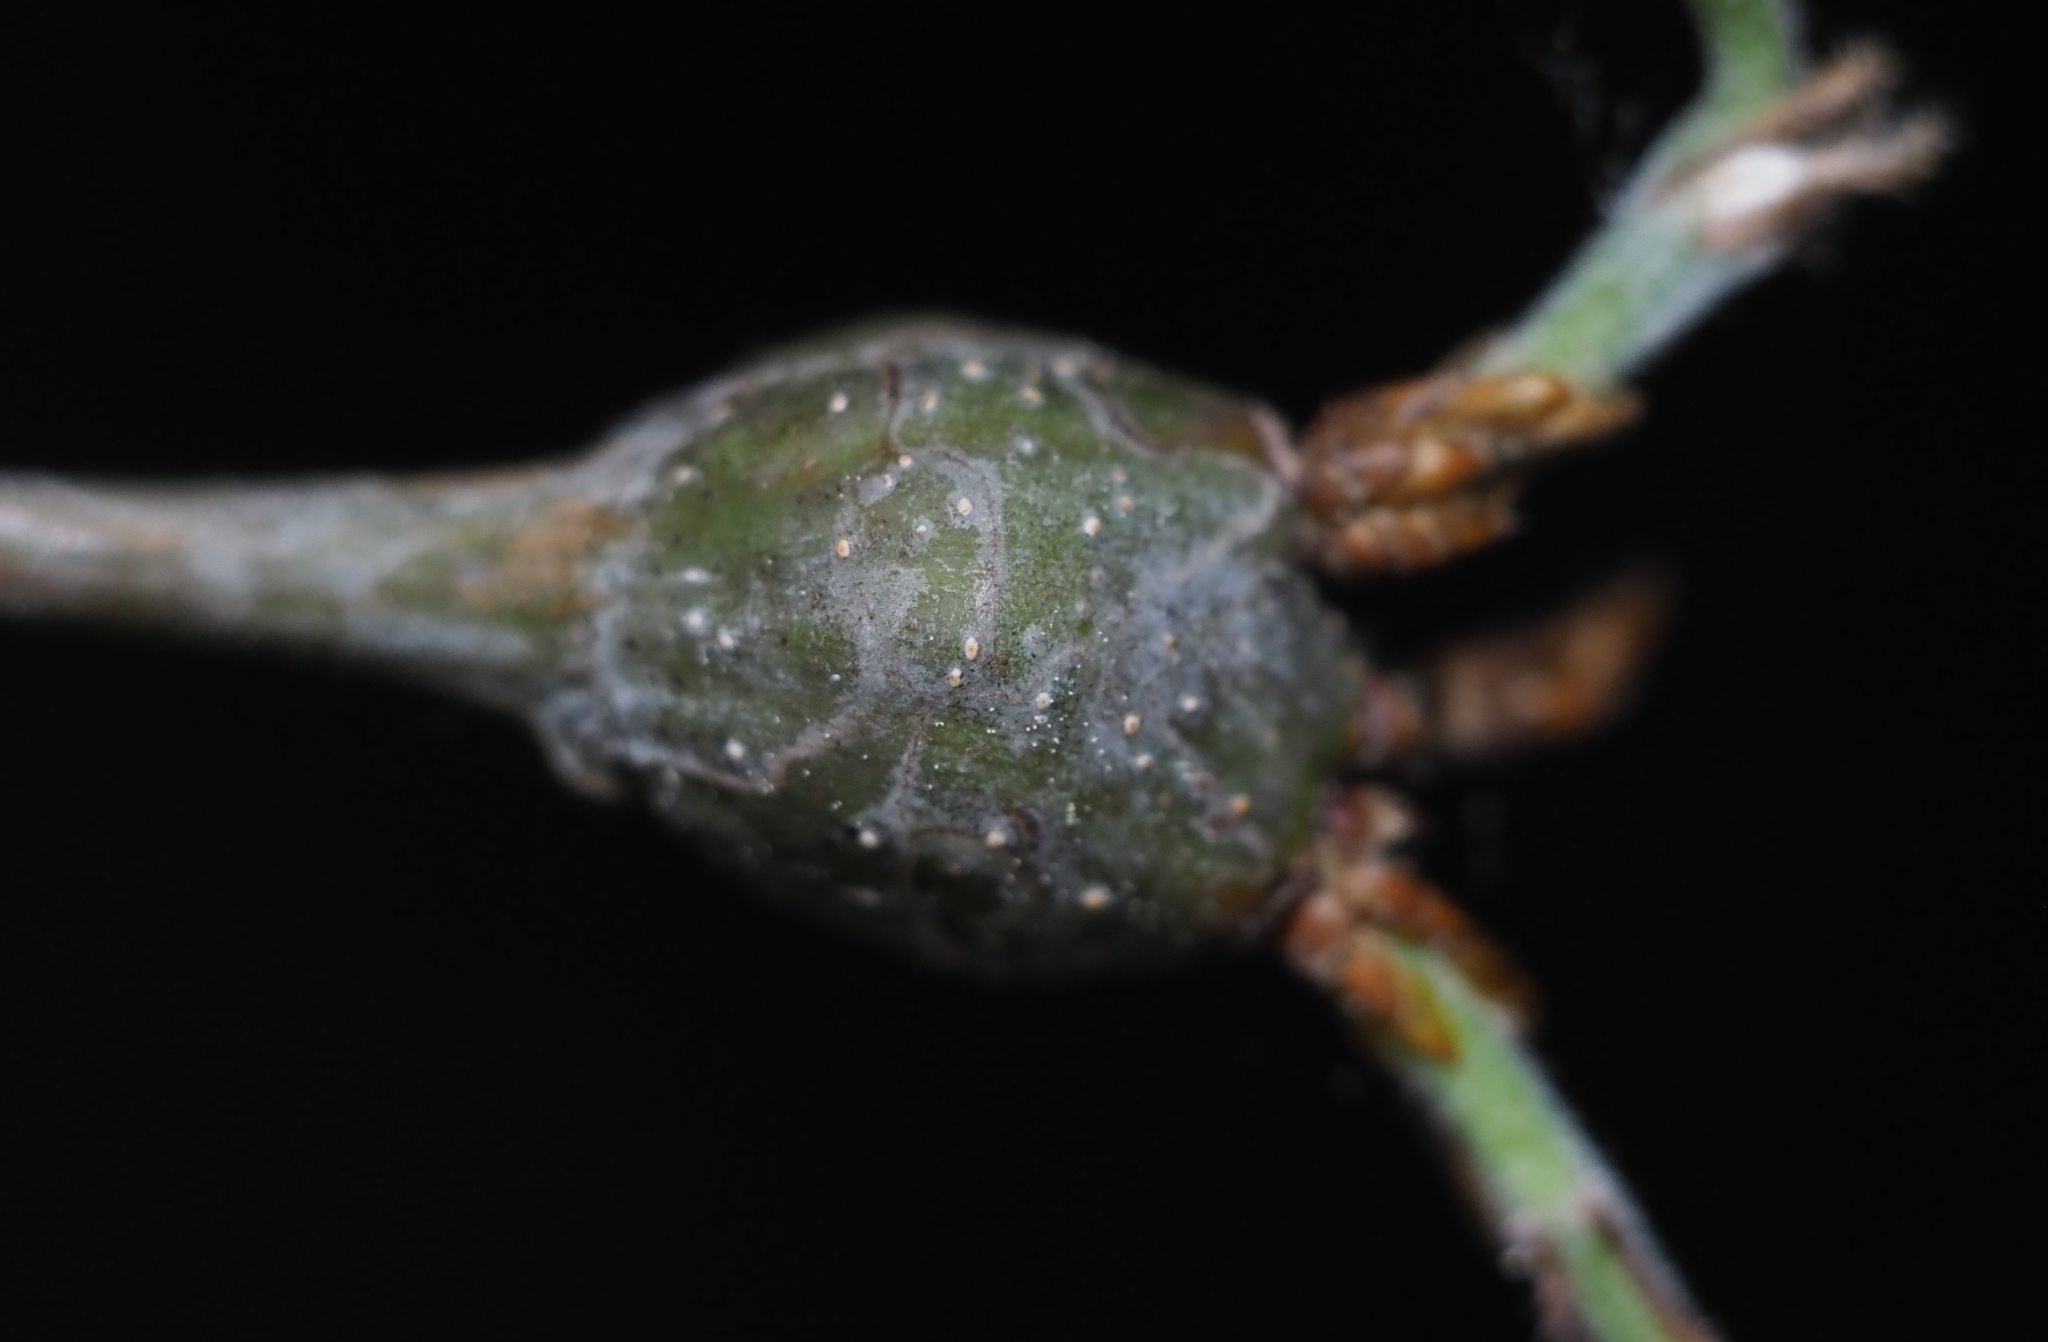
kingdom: Animalia
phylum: Arthropoda
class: Insecta
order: Hymenoptera
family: Cynipidae
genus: Callirhytis
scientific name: Callirhytis clavula
